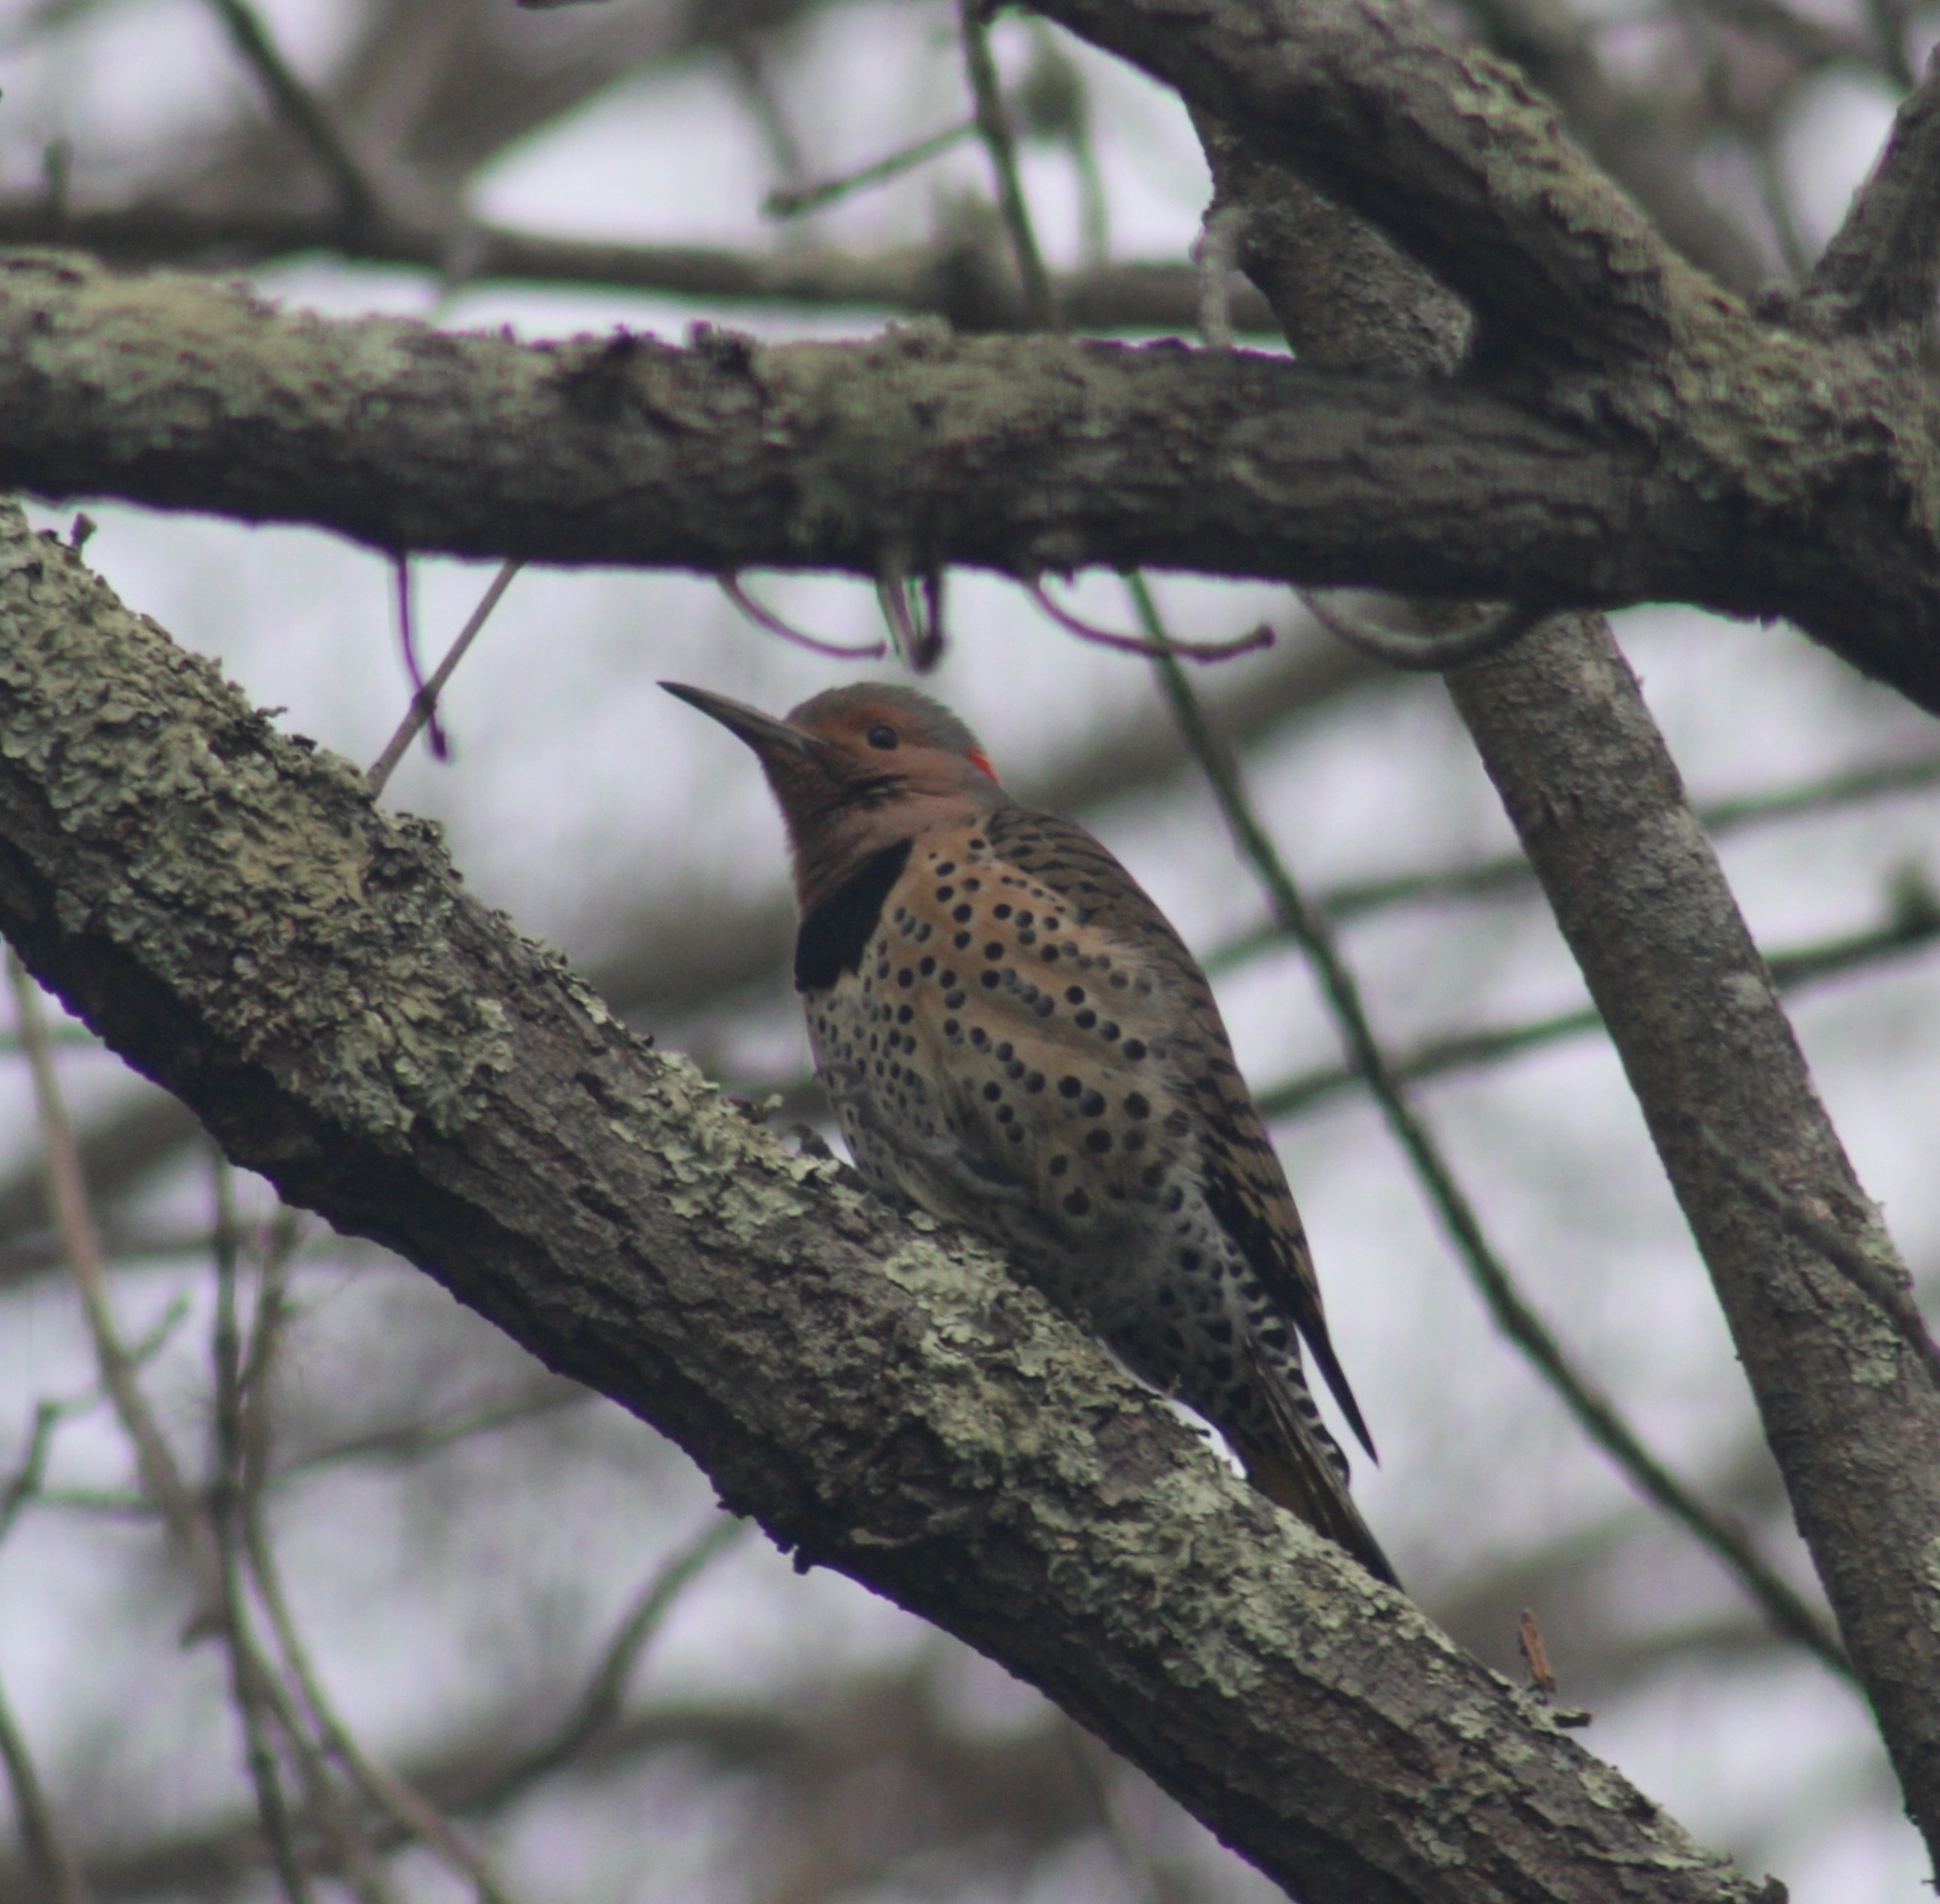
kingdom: Animalia
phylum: Chordata
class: Aves
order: Piciformes
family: Picidae
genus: Colaptes
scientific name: Colaptes auratus
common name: Northern flicker
